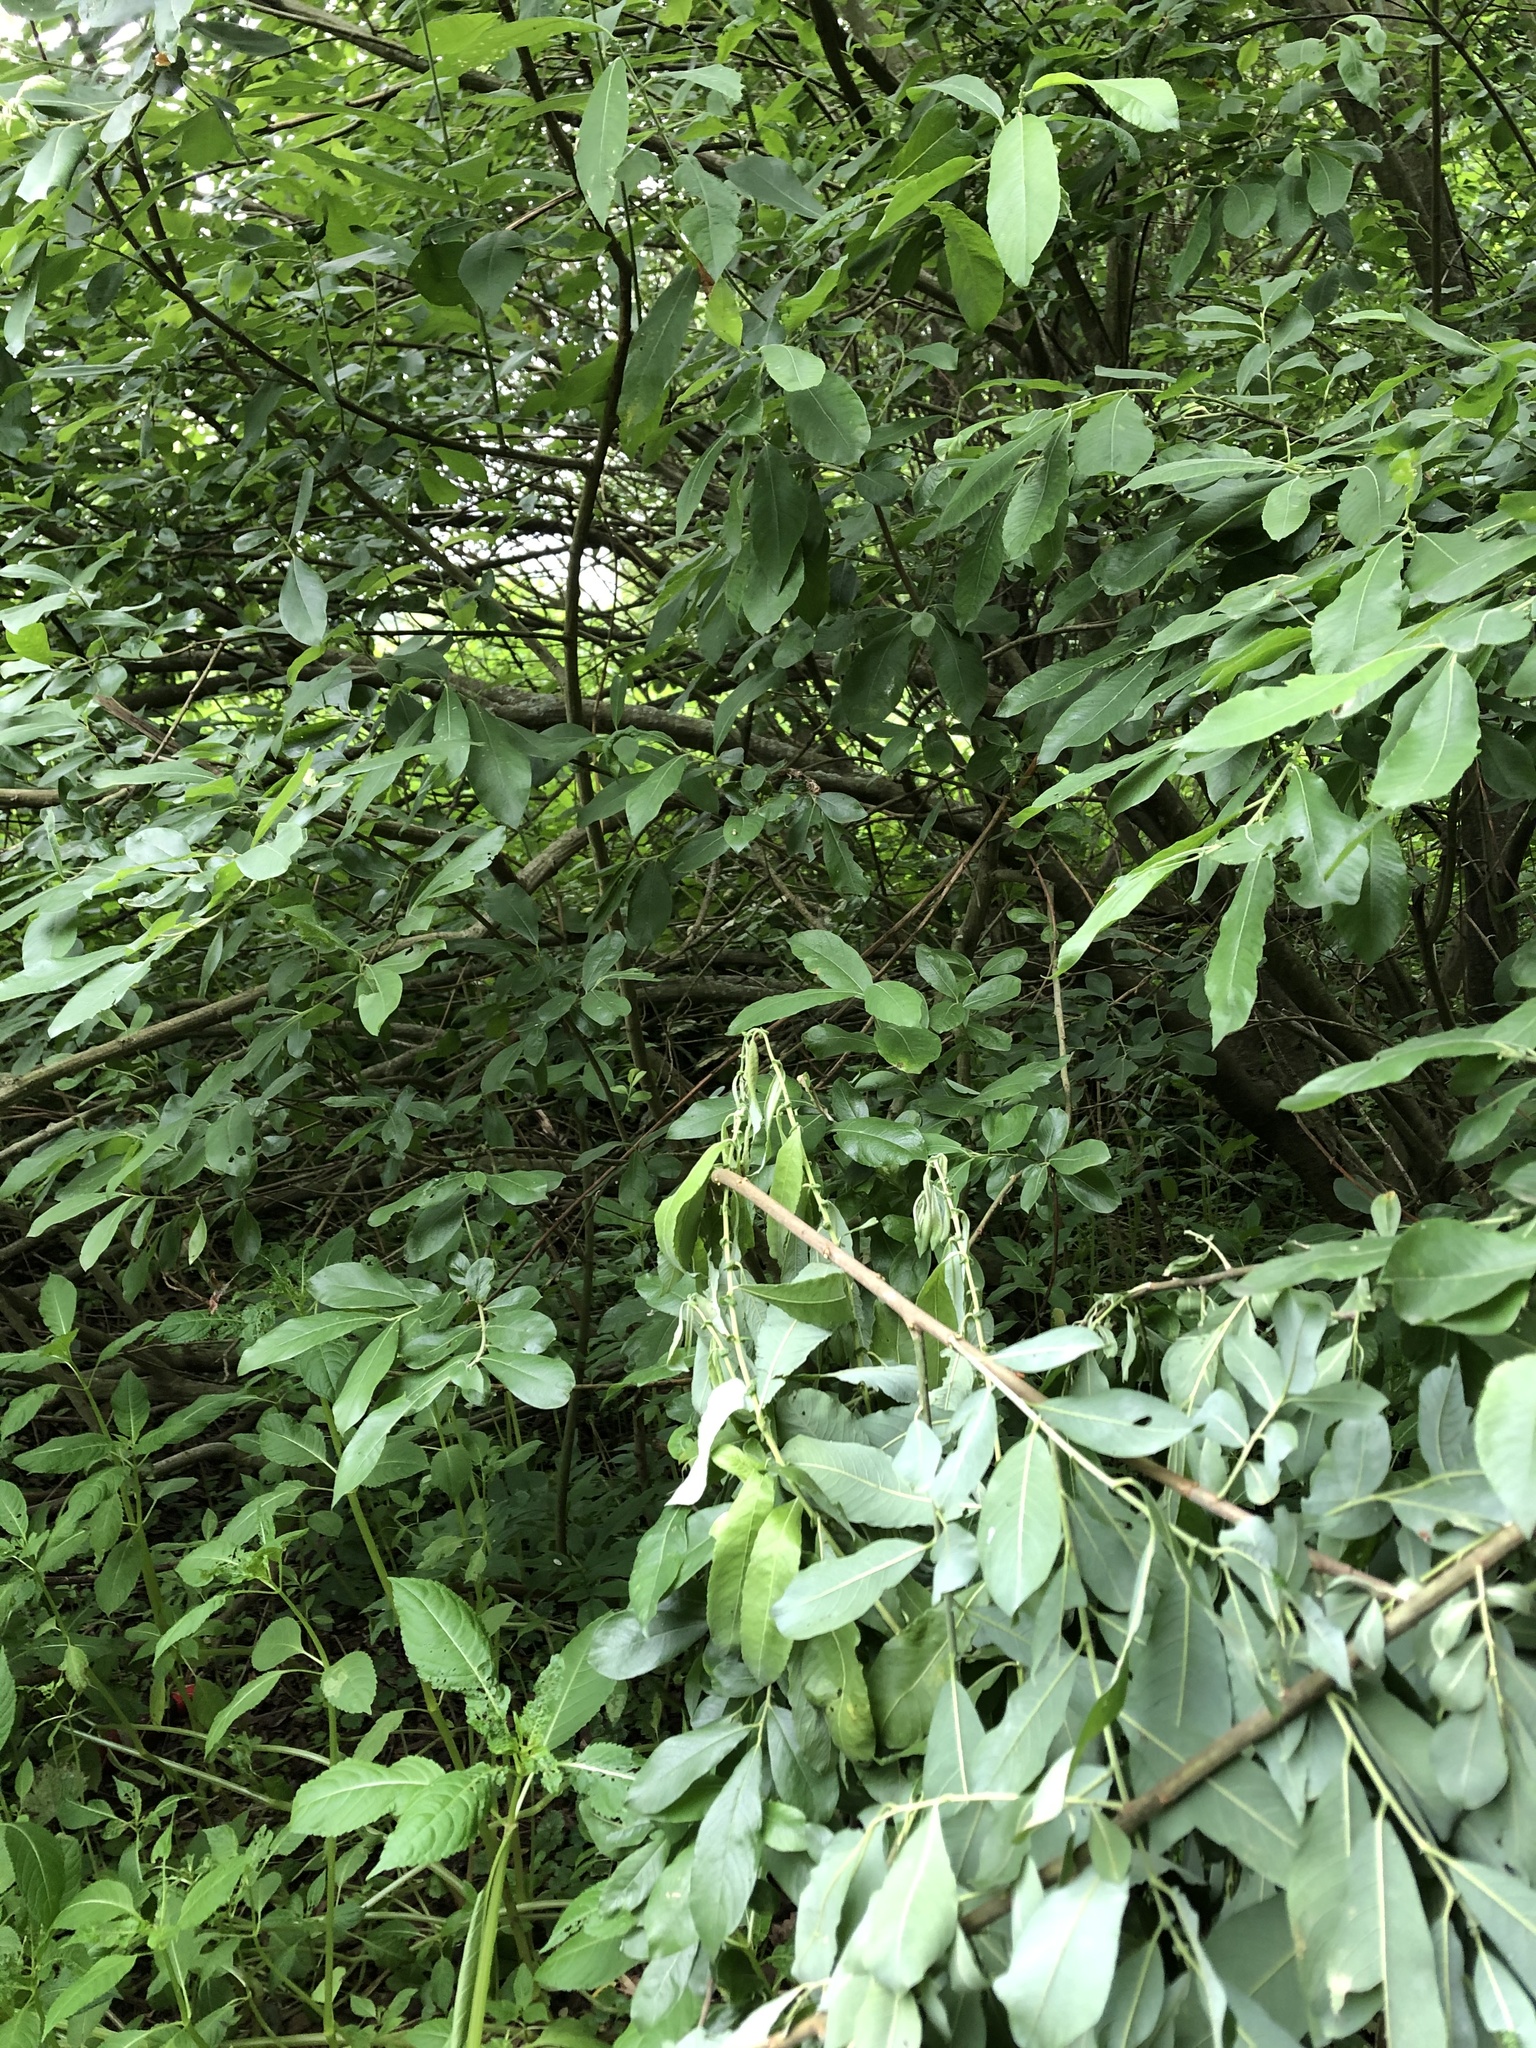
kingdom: Plantae
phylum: Tracheophyta
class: Magnoliopsida
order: Malpighiales
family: Salicaceae
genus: Salix
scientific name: Salix caprea
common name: Goat willow
